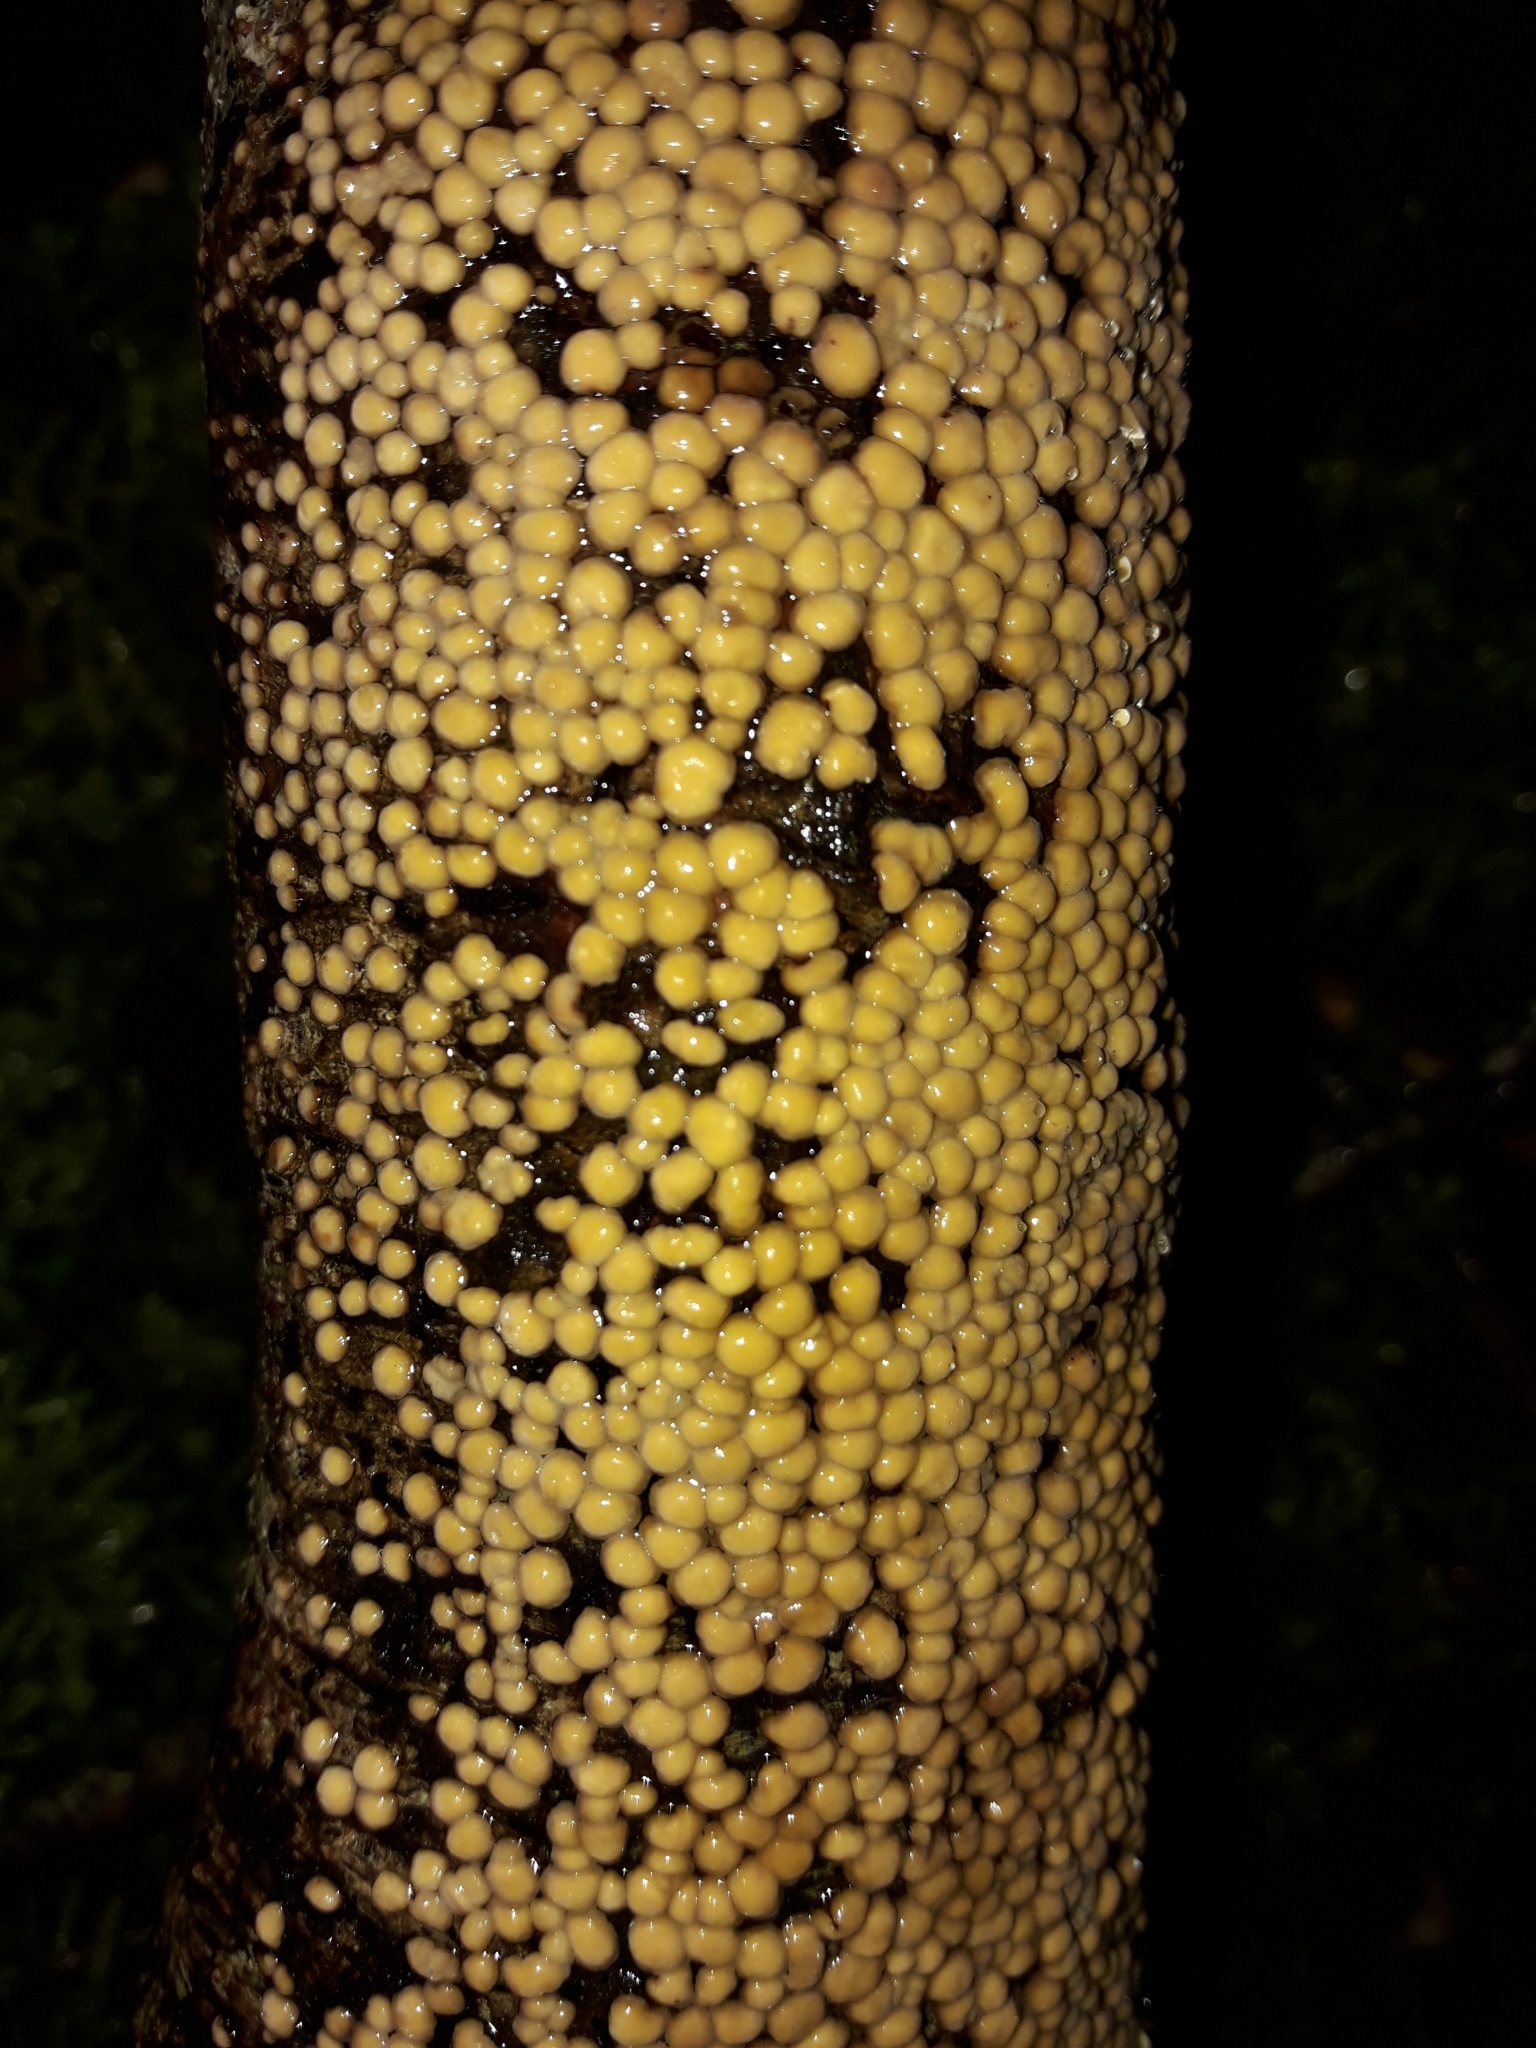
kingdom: Fungi
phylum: Basidiomycota
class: Agaricomycetes
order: Russulales
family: Stereaceae
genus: Aleurodiscus
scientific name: Aleurodiscus berggrenii
